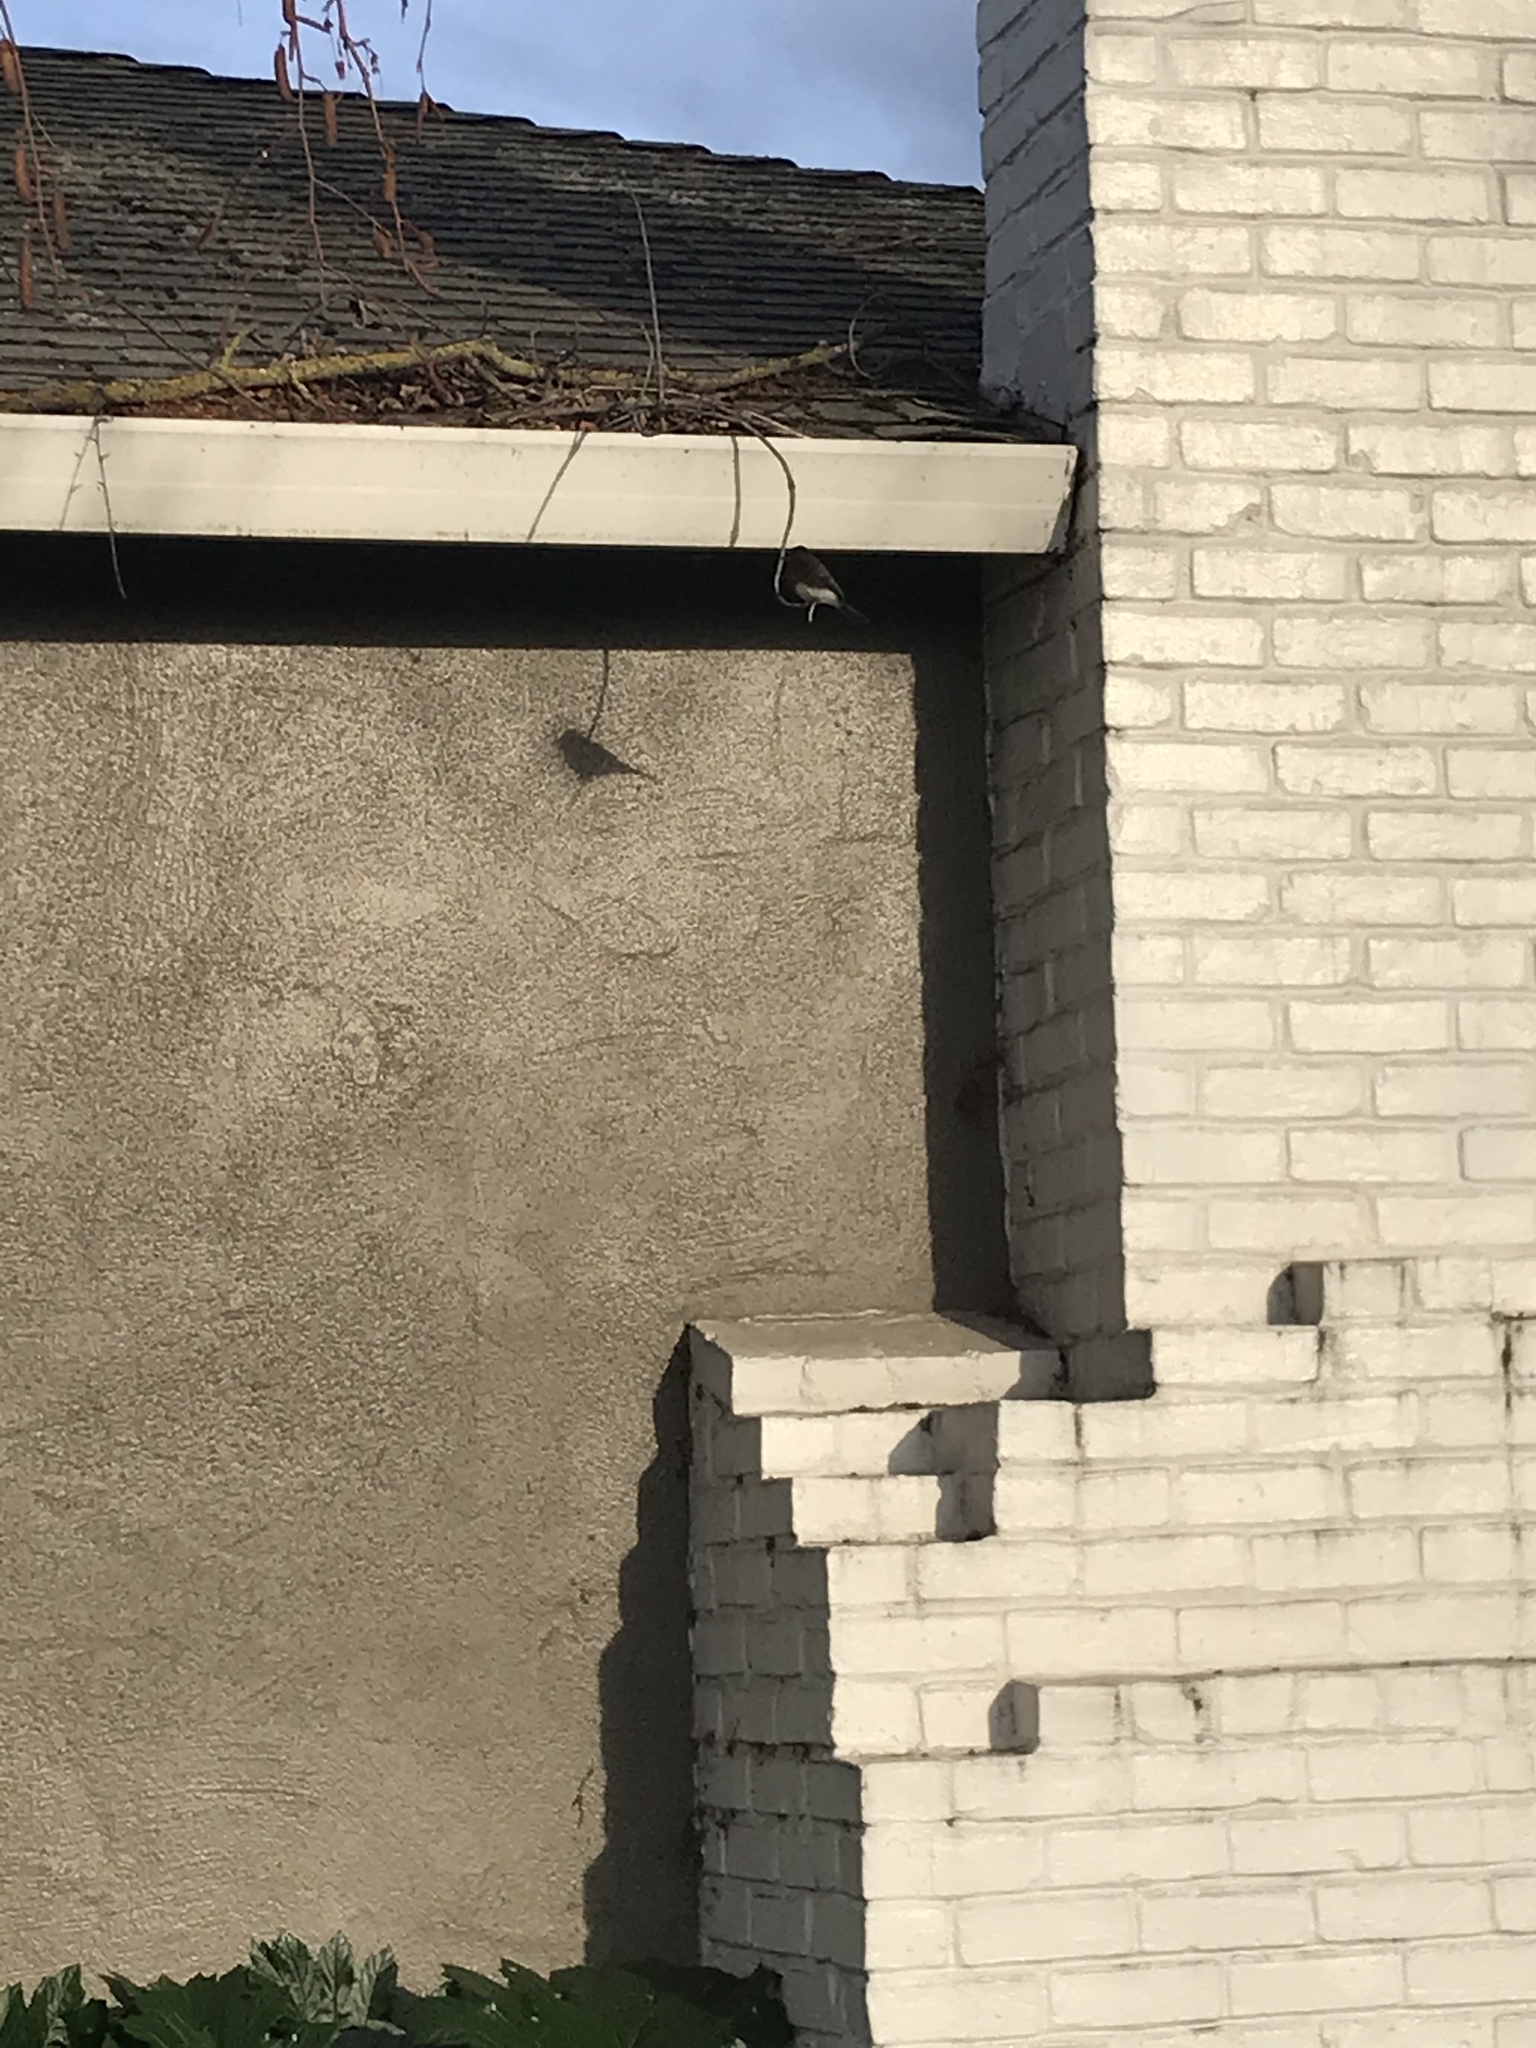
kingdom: Animalia
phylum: Chordata
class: Aves
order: Passeriformes
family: Tyrannidae
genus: Sayornis
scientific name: Sayornis nigricans
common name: Black phoebe
